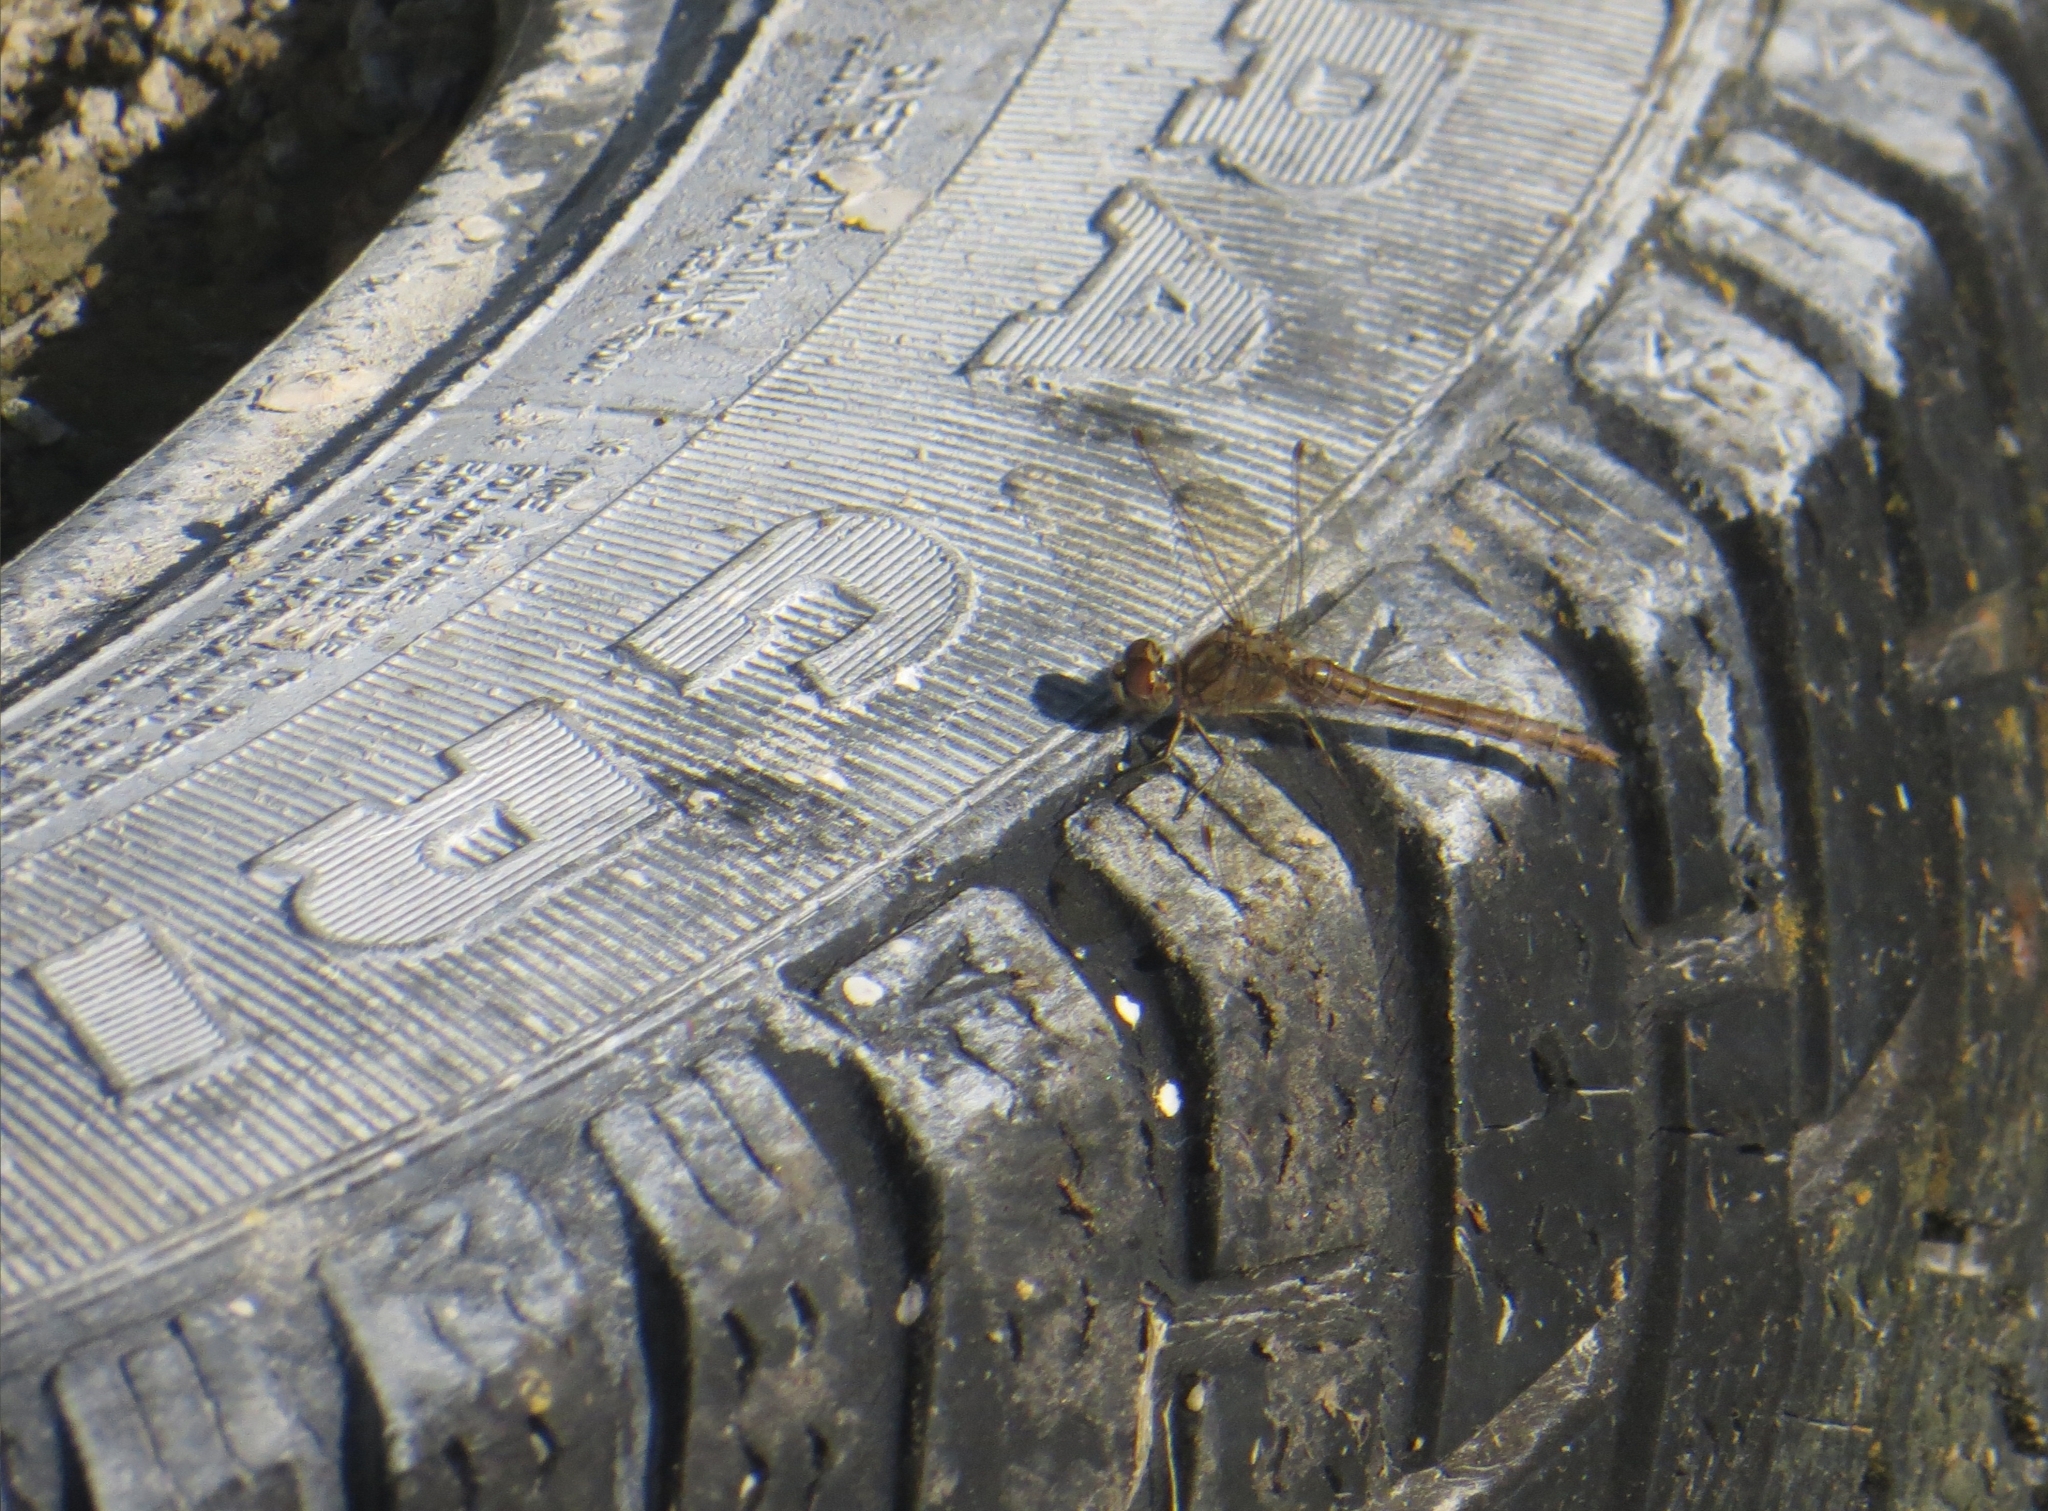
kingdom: Animalia
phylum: Arthropoda
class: Insecta
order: Odonata
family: Libellulidae
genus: Sympetrum
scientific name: Sympetrum vulgatum
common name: Vagrant darter
